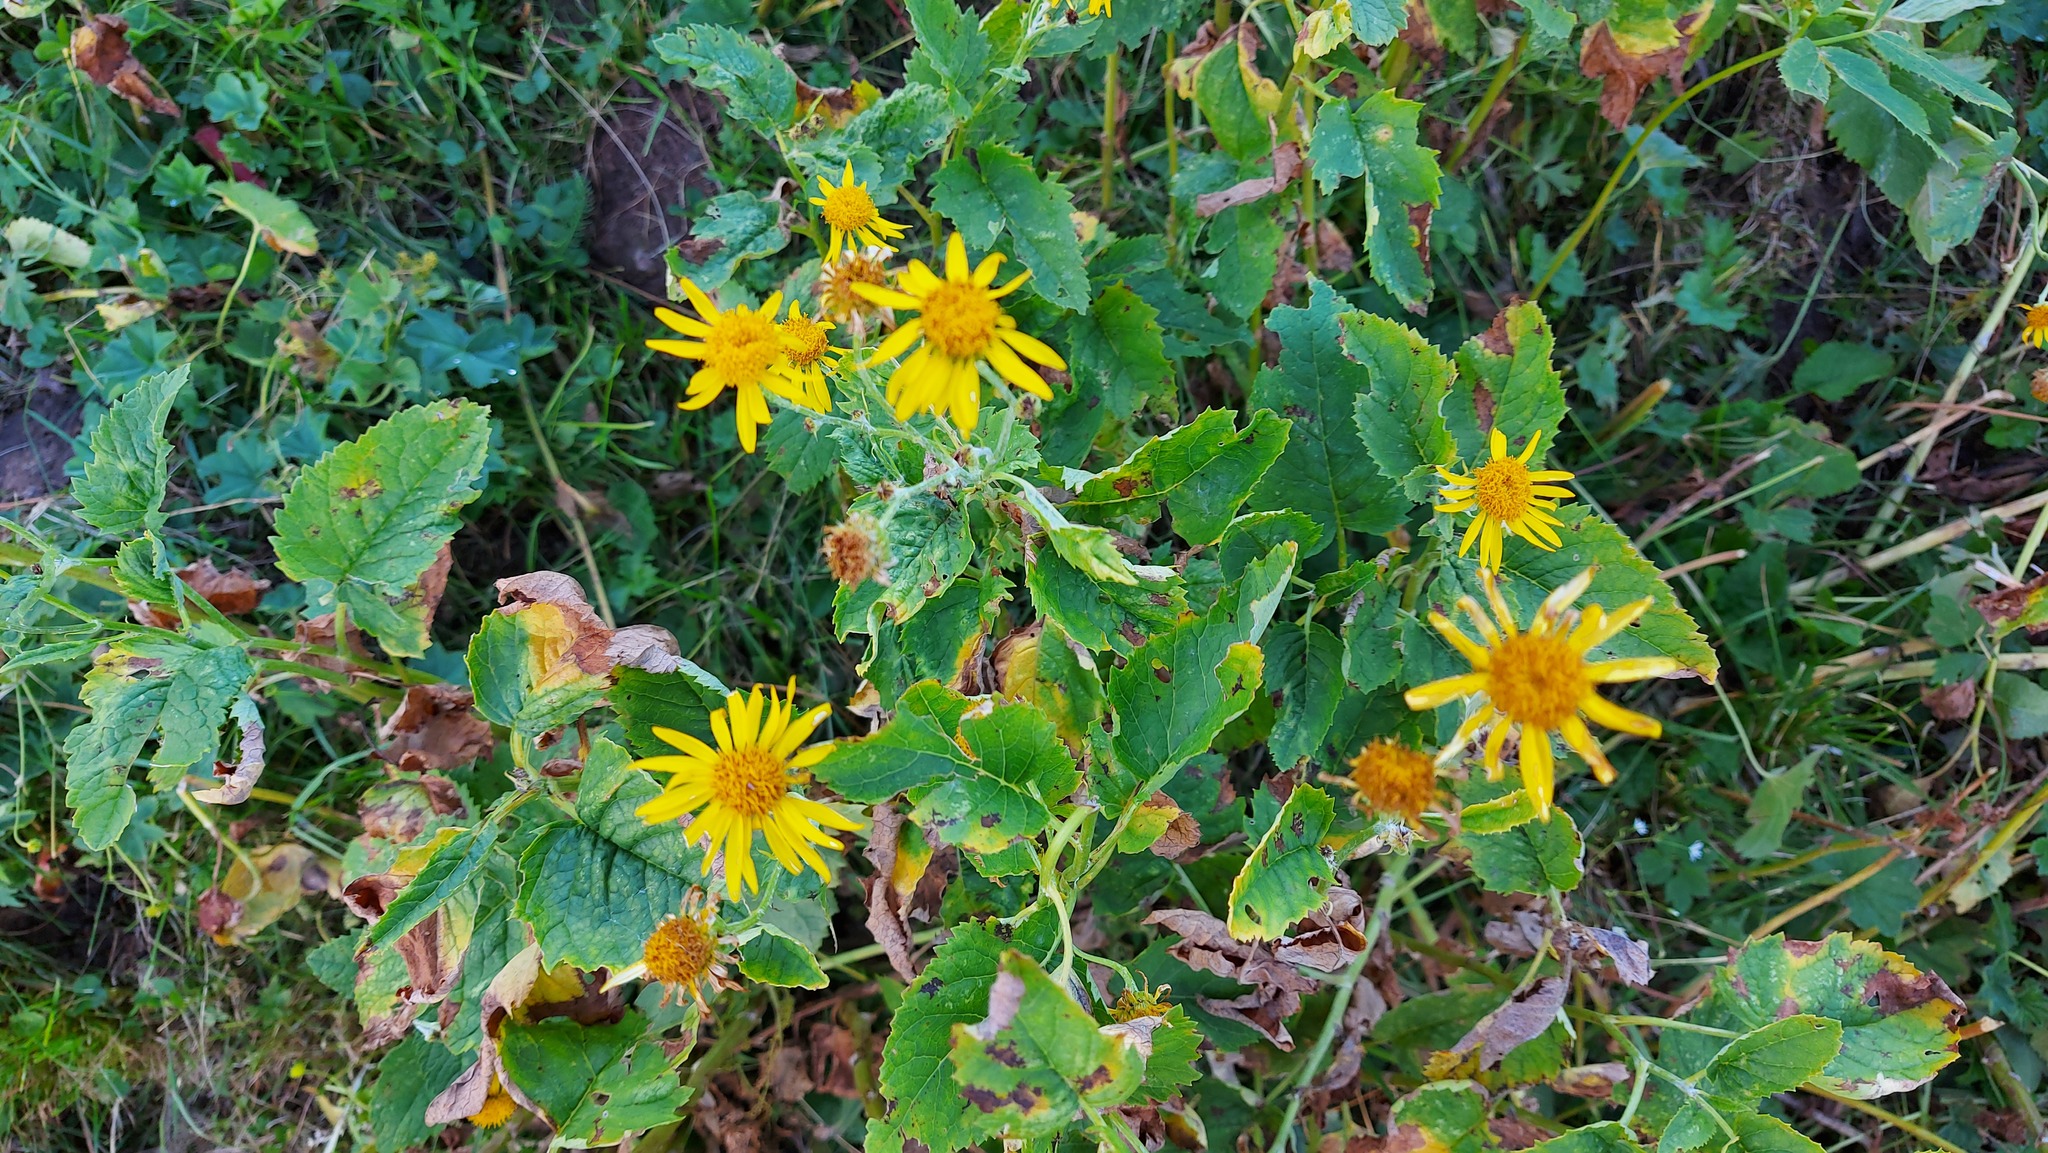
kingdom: Plantae
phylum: Tracheophyta
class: Magnoliopsida
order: Asterales
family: Asteraceae
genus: Jacobaea
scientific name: Jacobaea alpina
